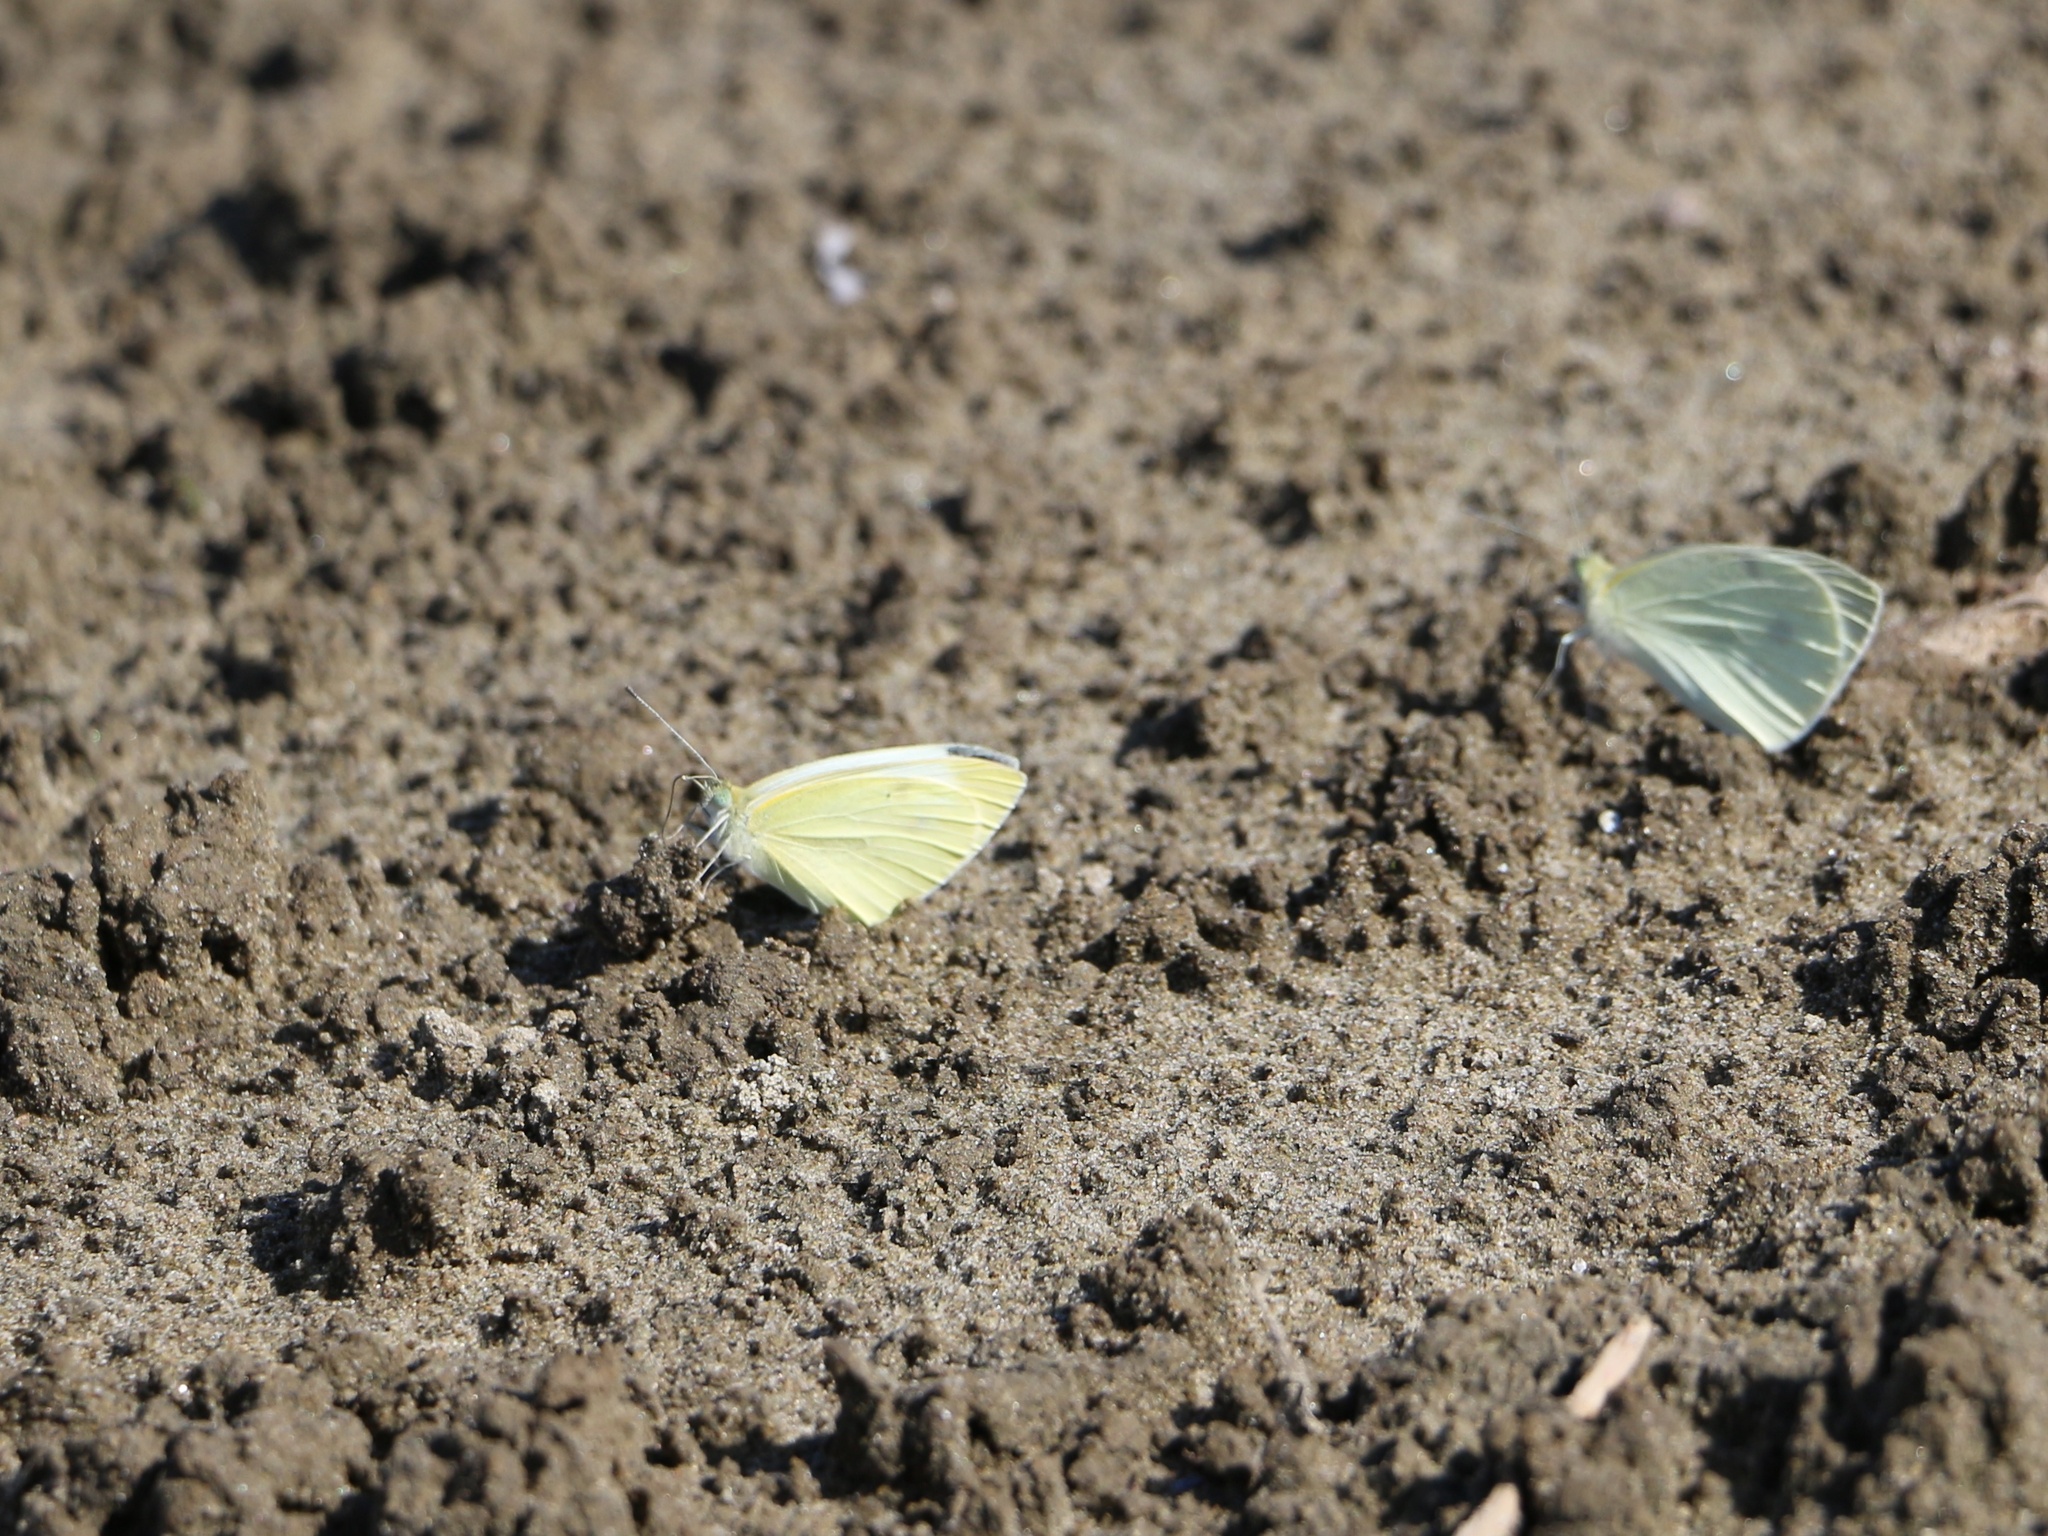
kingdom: Animalia
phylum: Arthropoda
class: Insecta
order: Lepidoptera
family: Pieridae
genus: Pieris
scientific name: Pieris rapae
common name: Small white
